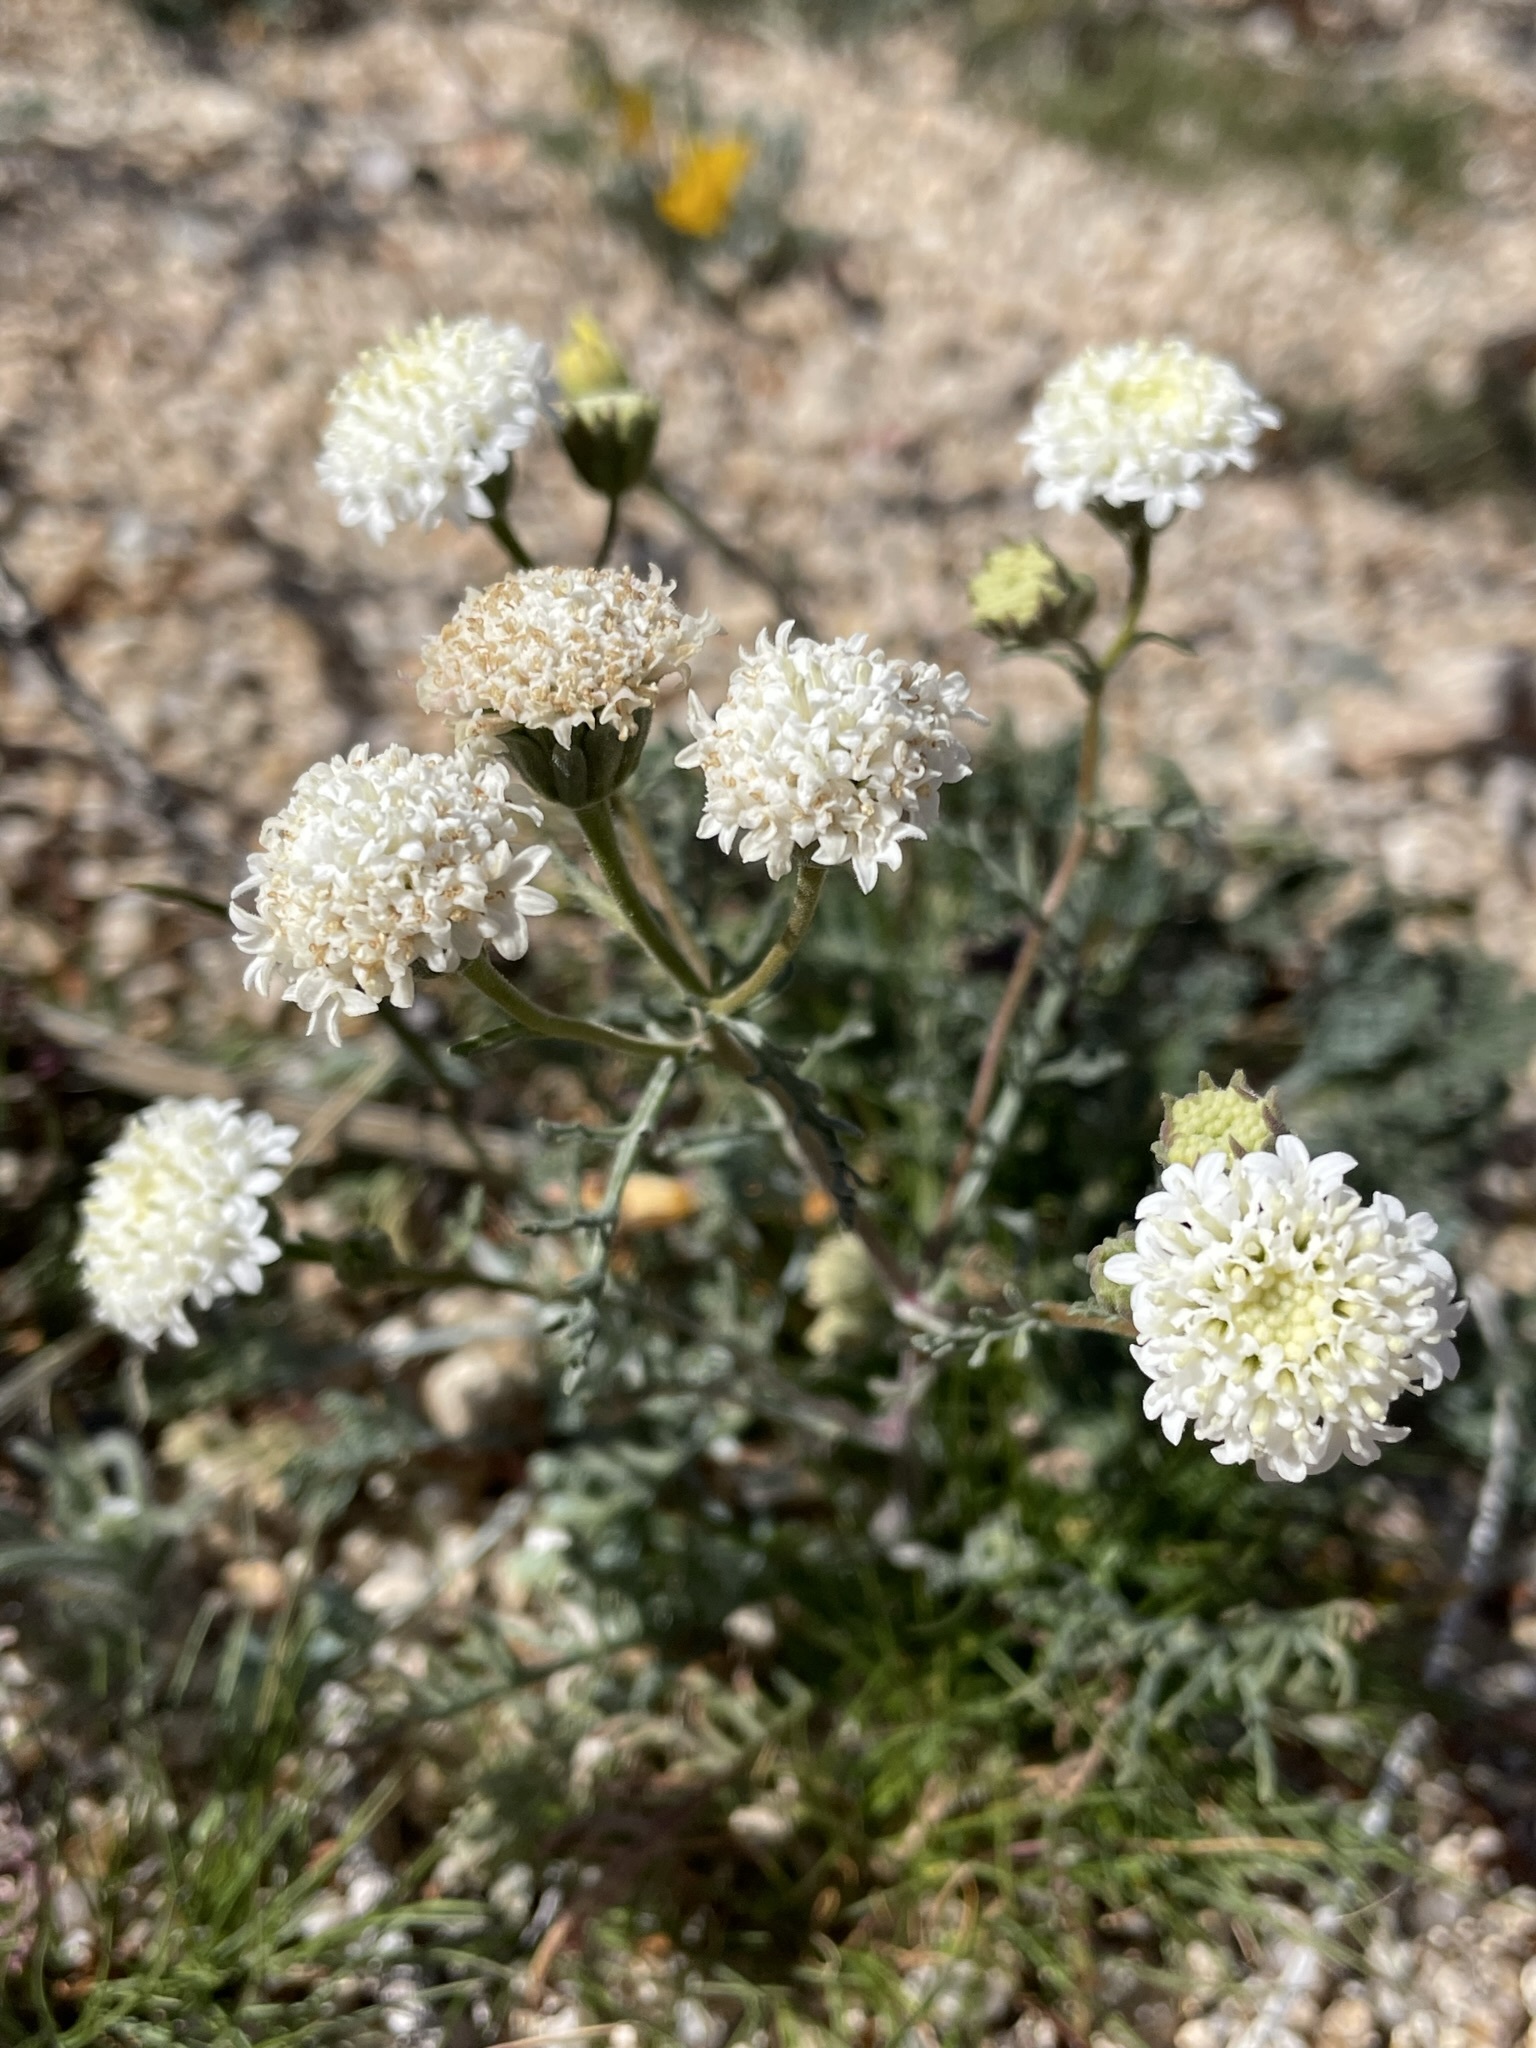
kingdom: Plantae
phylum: Tracheophyta
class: Magnoliopsida
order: Asterales
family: Asteraceae
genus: Chaenactis
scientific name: Chaenactis stevioides
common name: Desert pincushion
